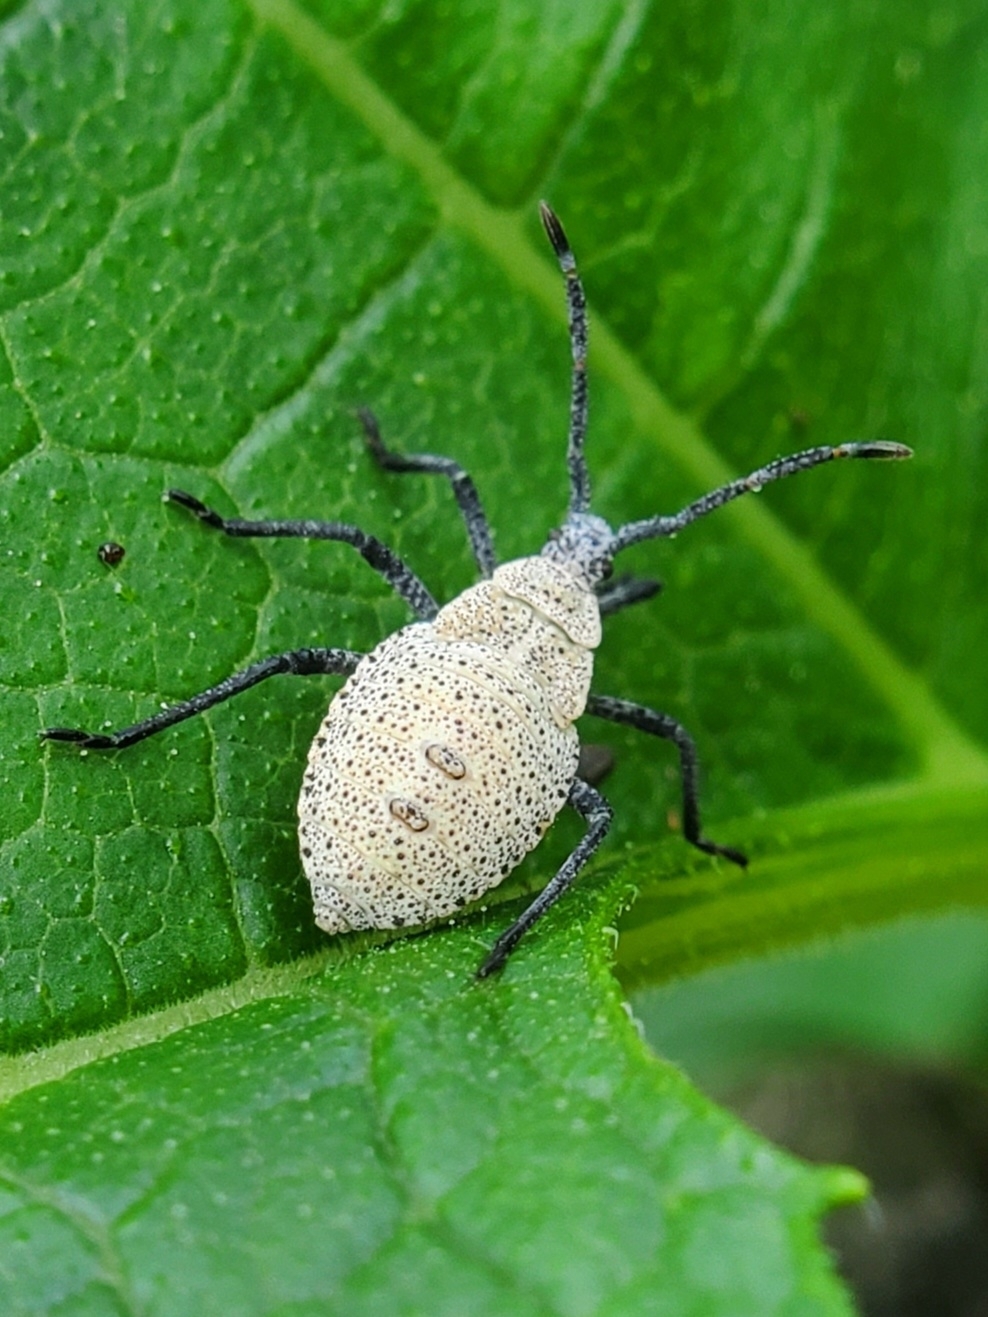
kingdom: Animalia
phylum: Arthropoda
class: Insecta
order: Hemiptera
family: Coreidae
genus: Anasa
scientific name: Anasa tristis
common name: Squash bug
